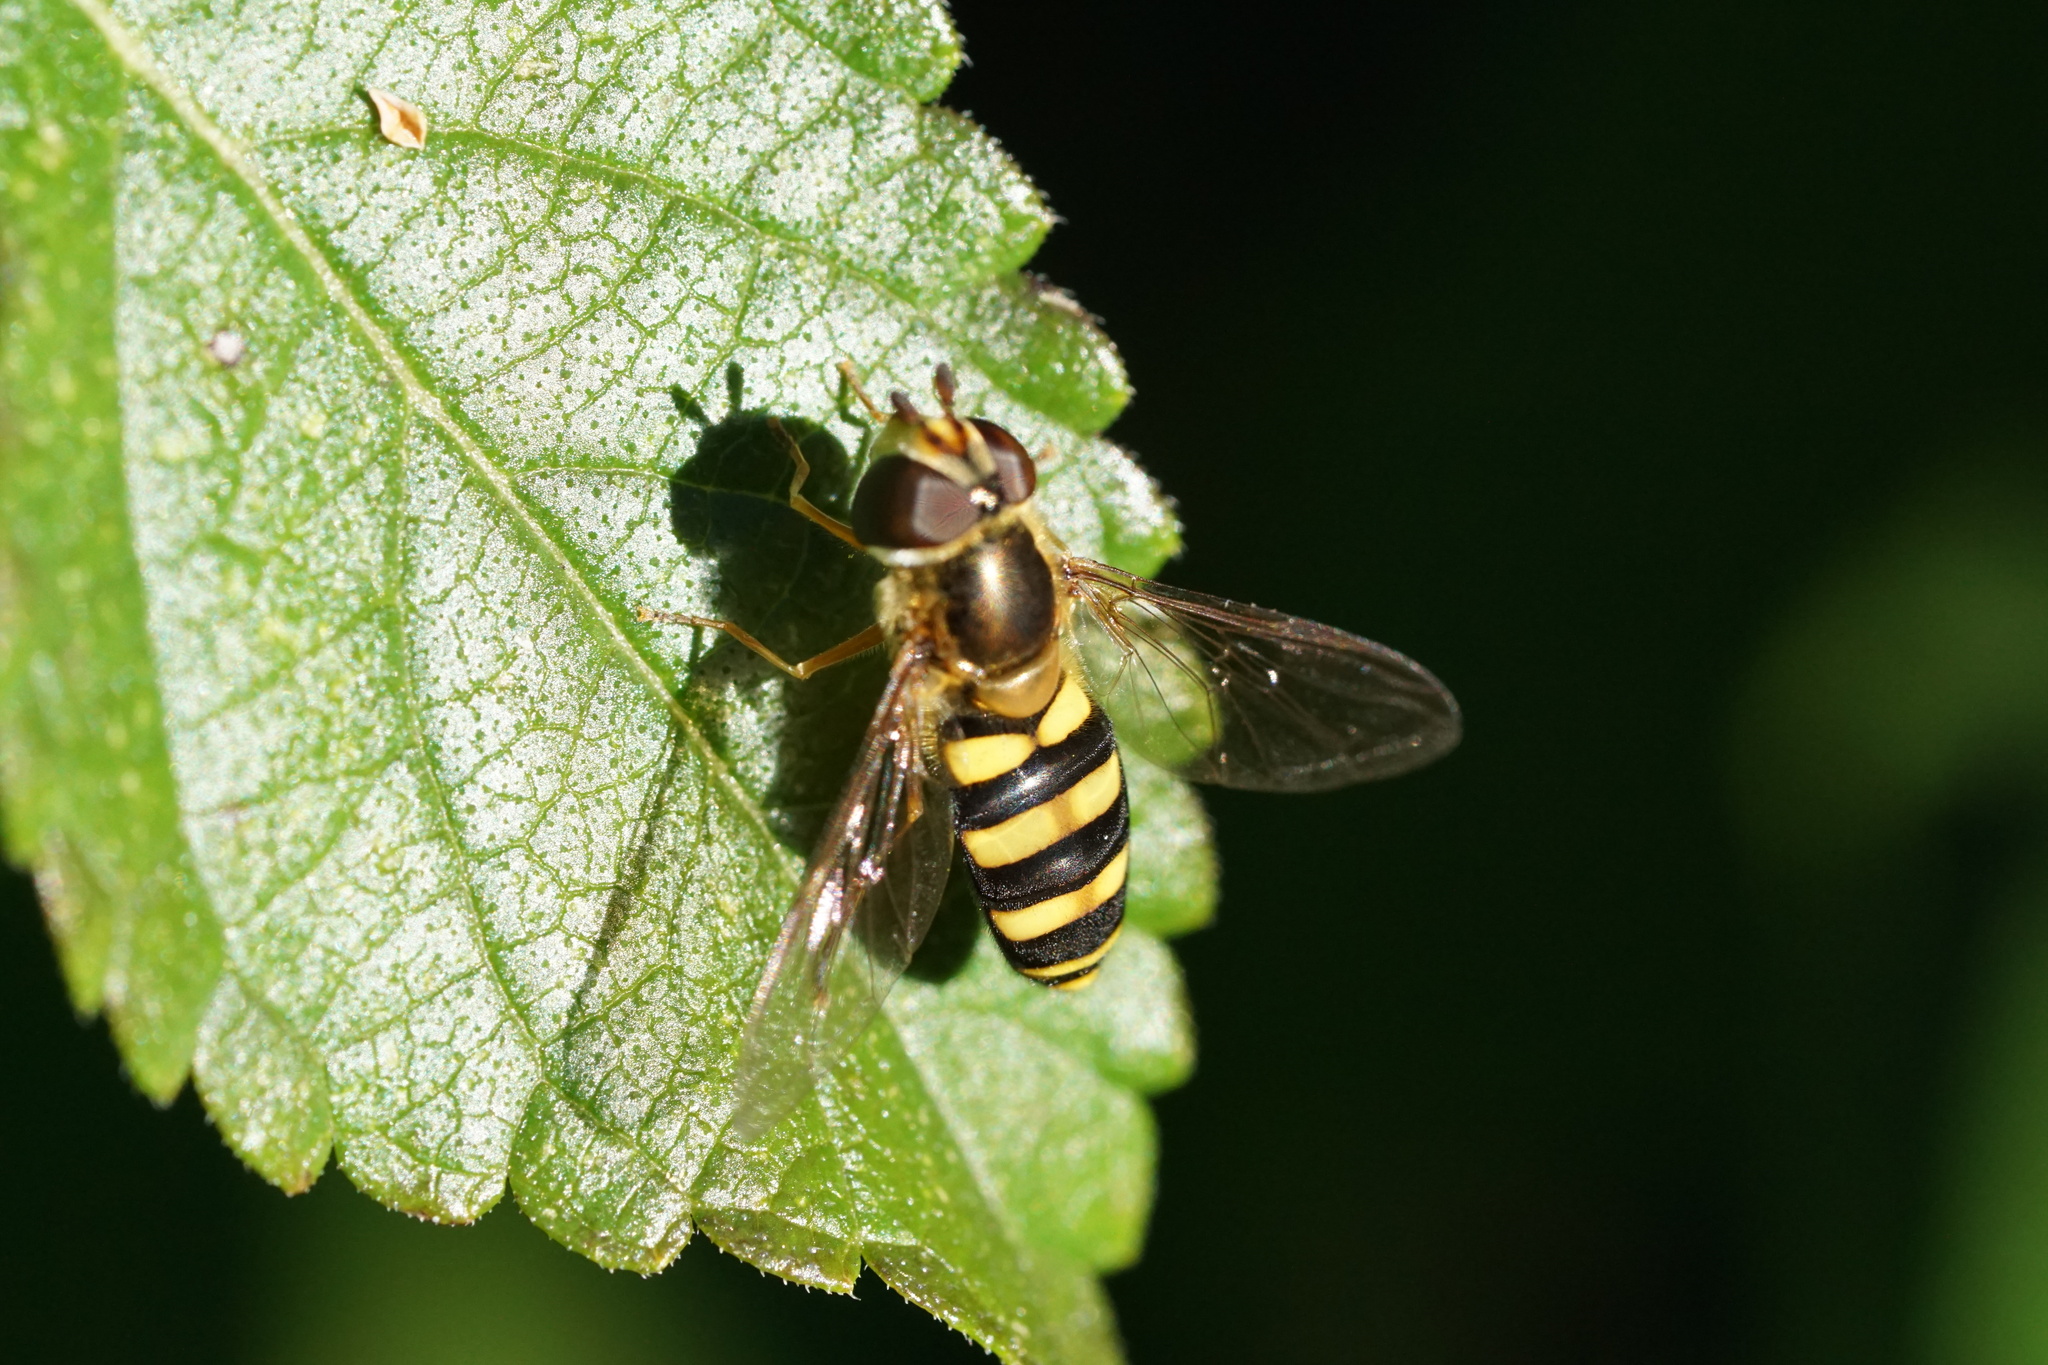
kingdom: Animalia
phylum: Arthropoda
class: Insecta
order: Diptera
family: Syrphidae
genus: Eupeodes
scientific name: Eupeodes
